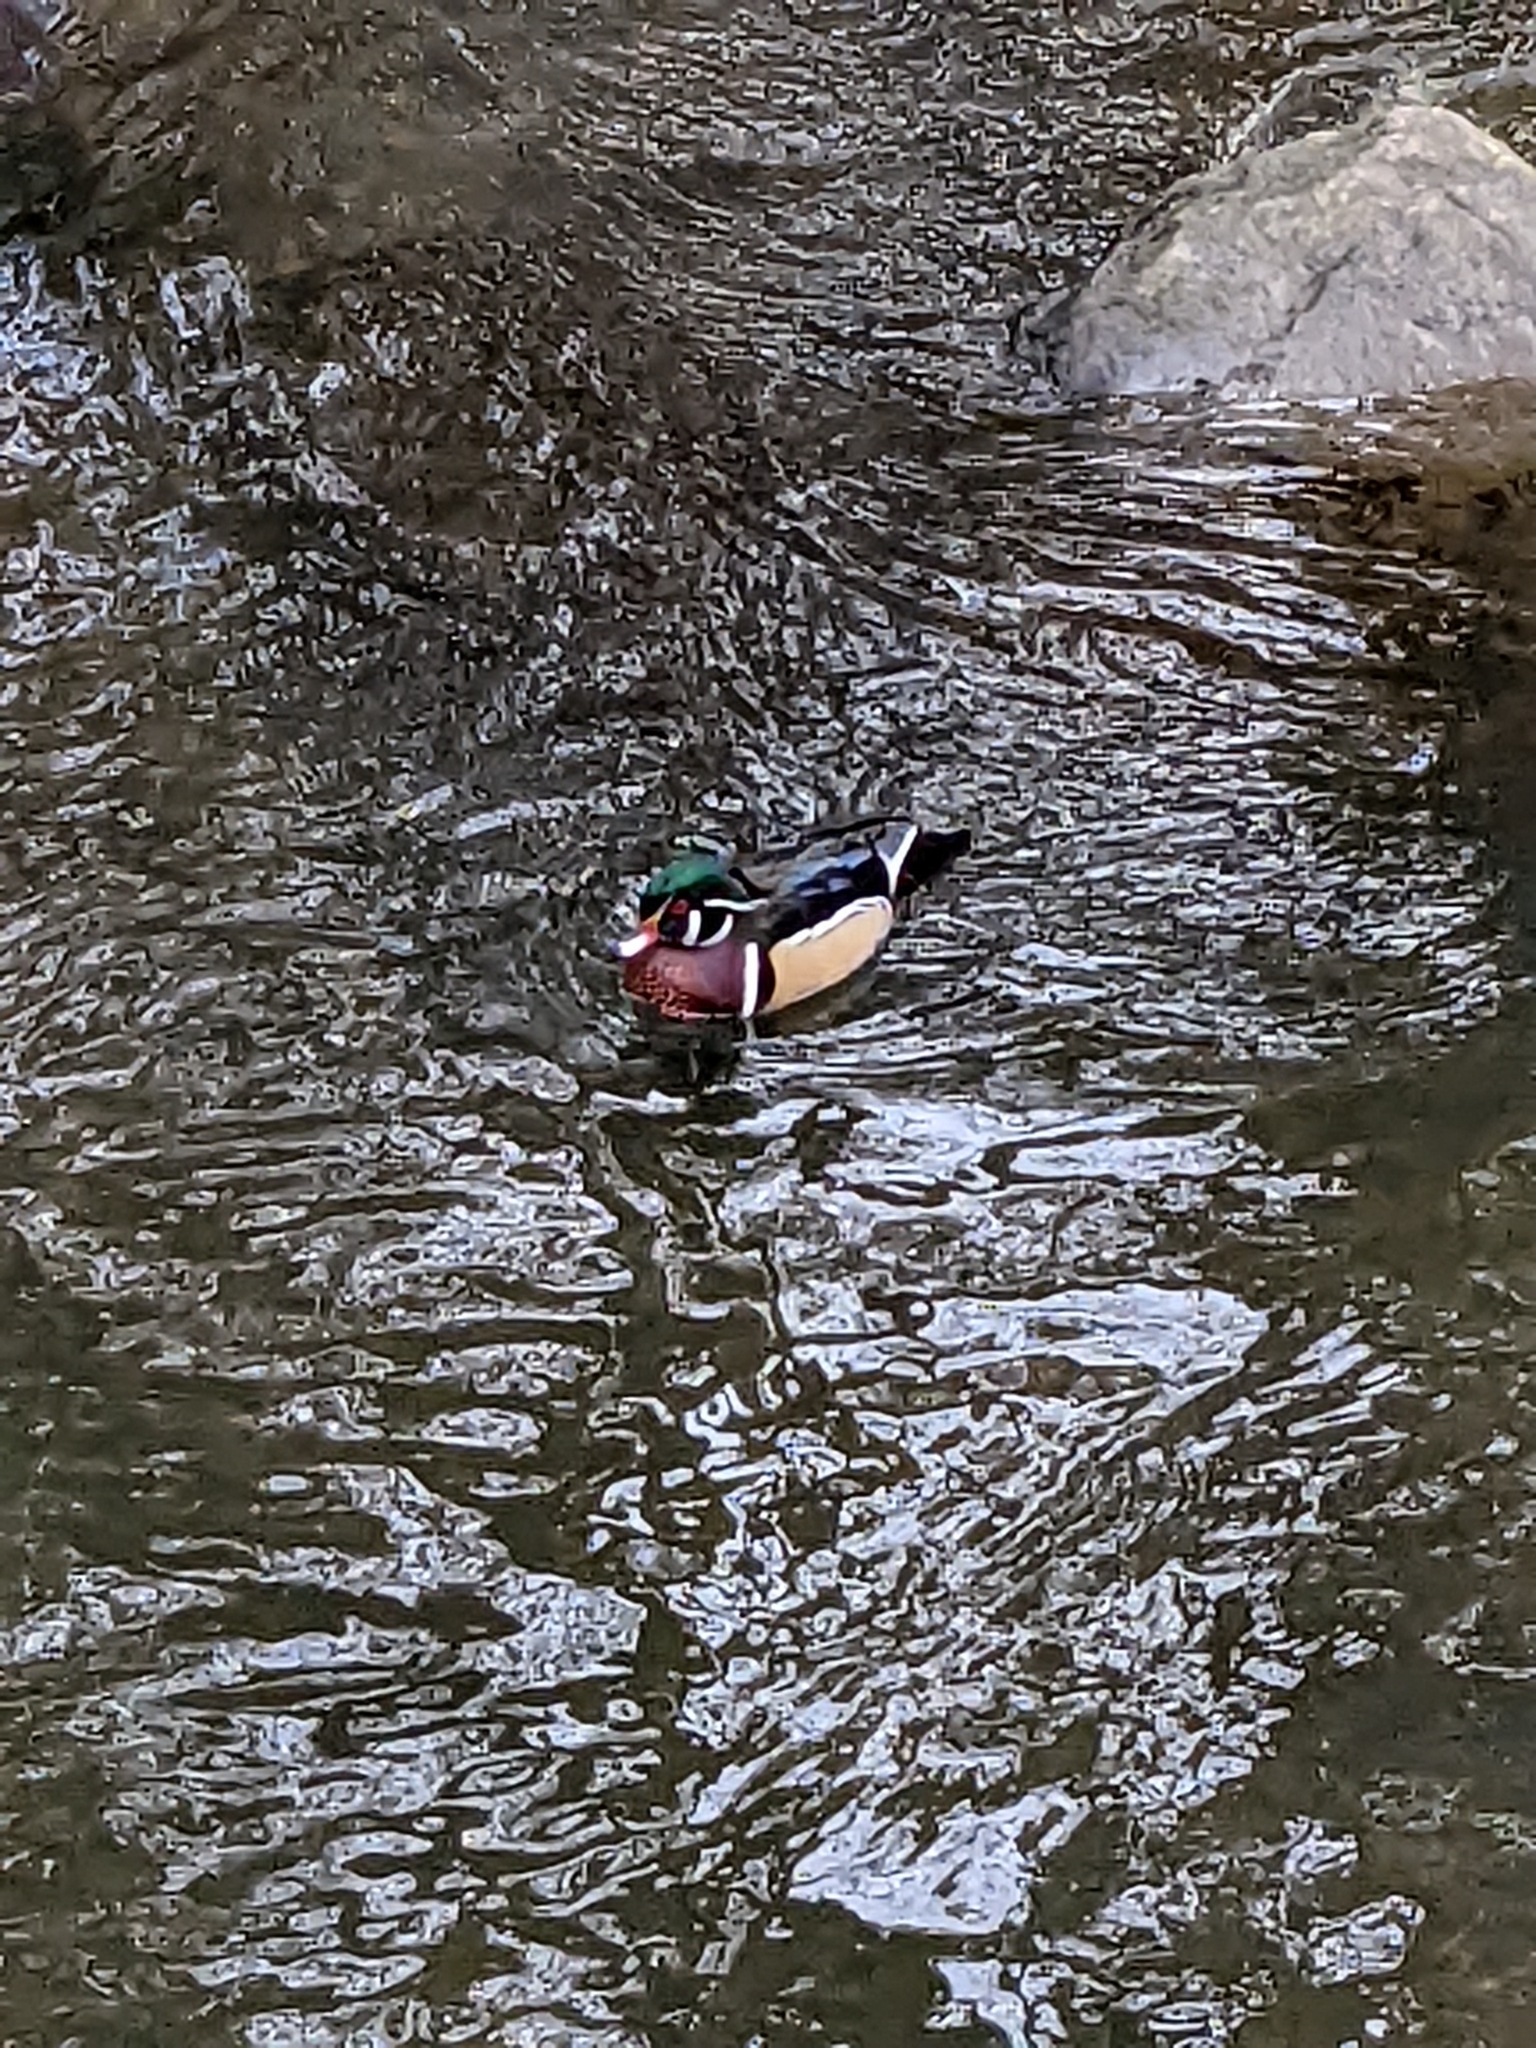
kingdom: Animalia
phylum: Chordata
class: Aves
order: Anseriformes
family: Anatidae
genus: Aix
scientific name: Aix sponsa
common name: Wood duck
